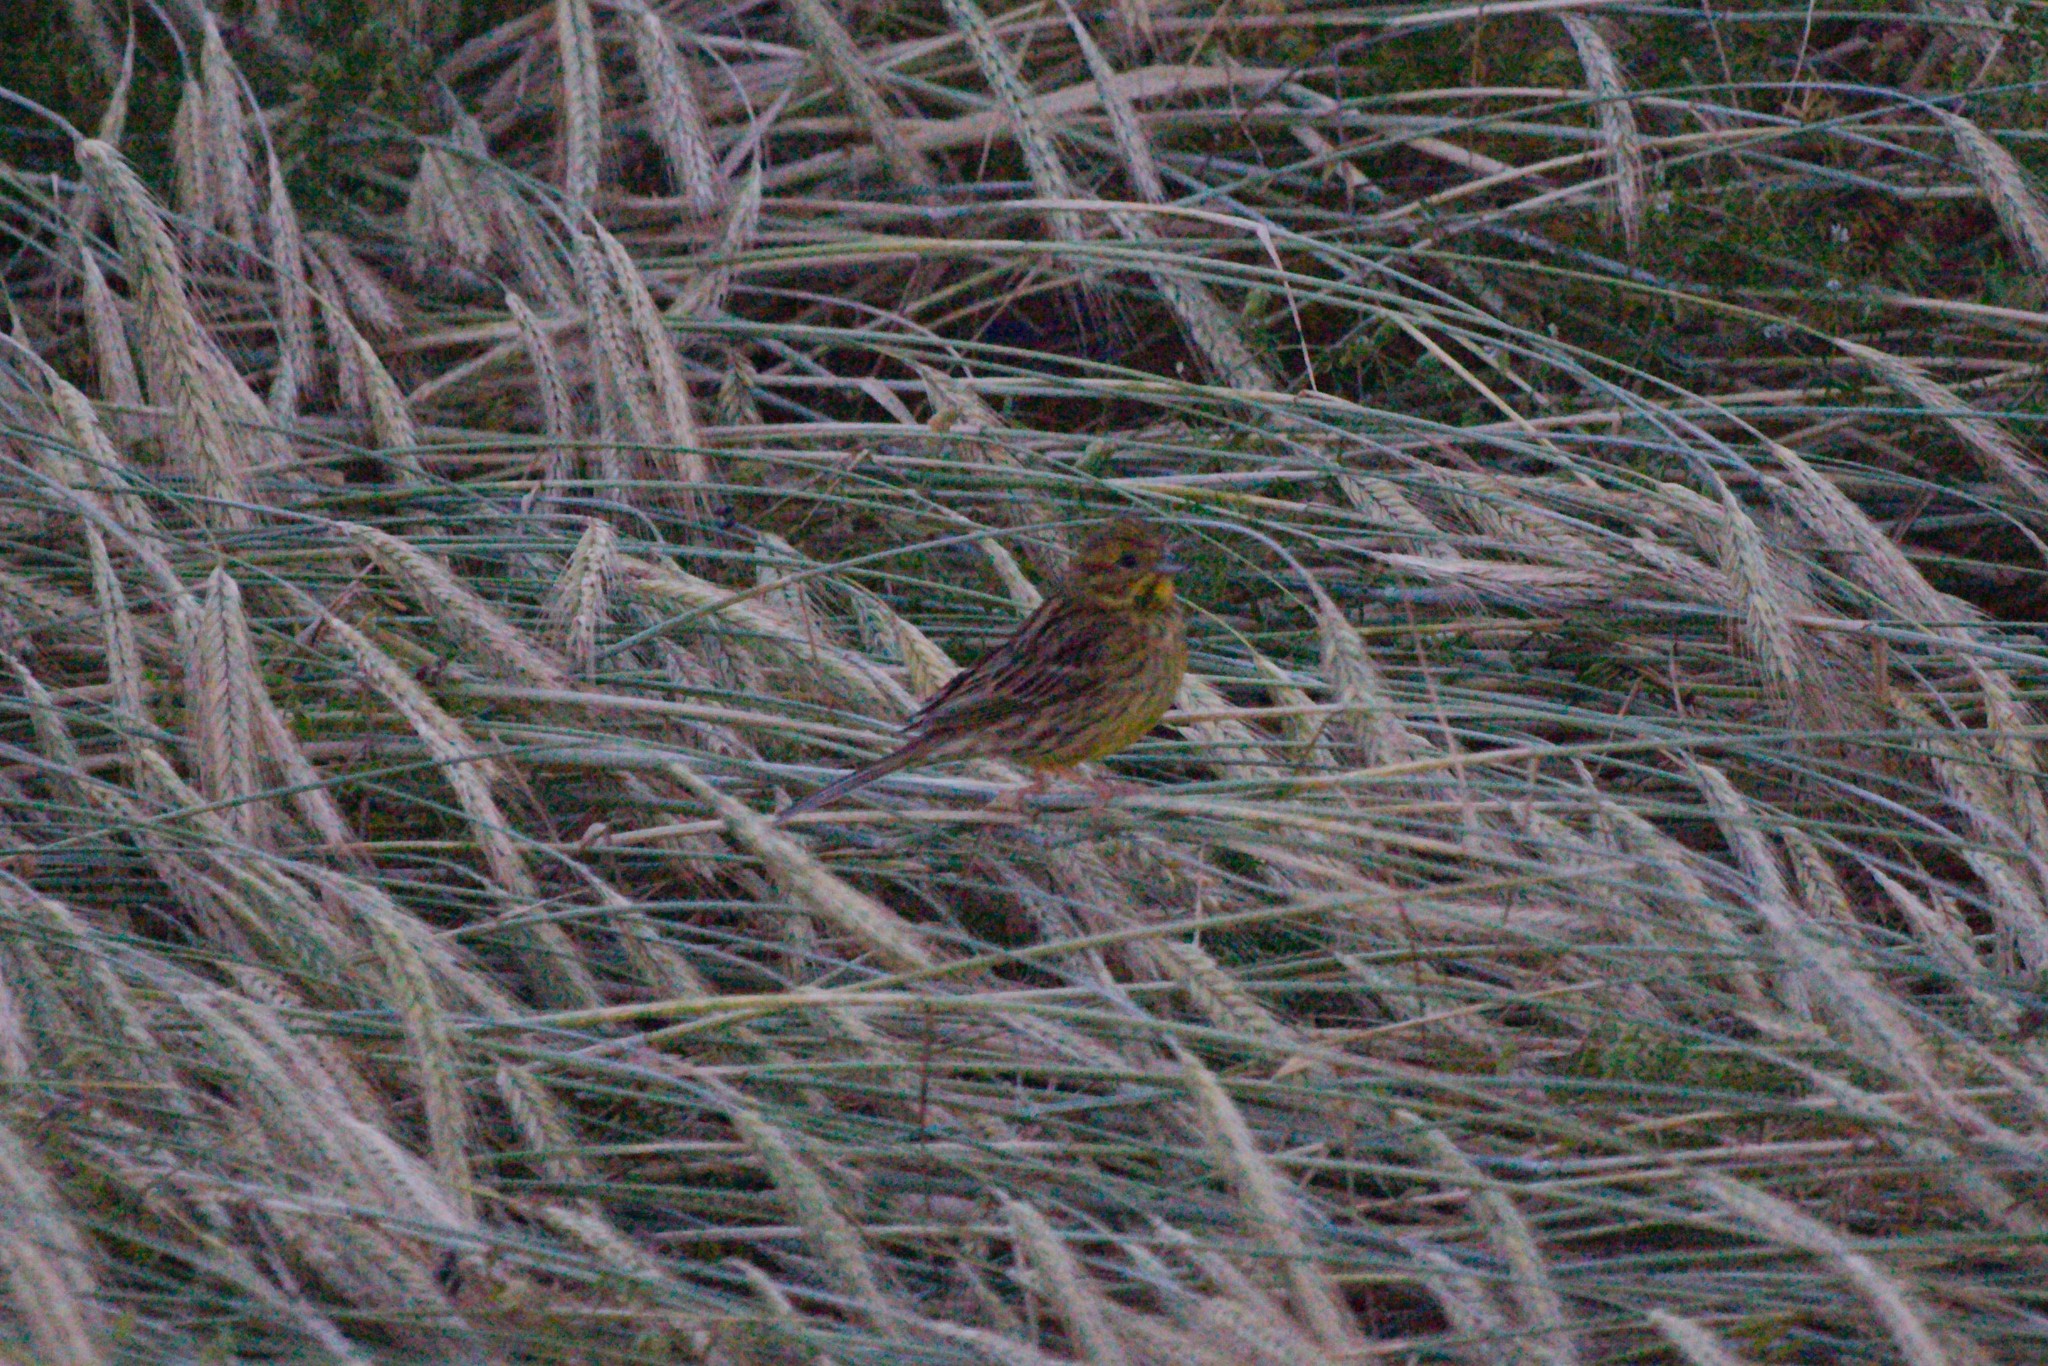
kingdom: Animalia
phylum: Chordata
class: Aves
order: Passeriformes
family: Emberizidae
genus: Emberiza
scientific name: Emberiza citrinella
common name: Yellowhammer
